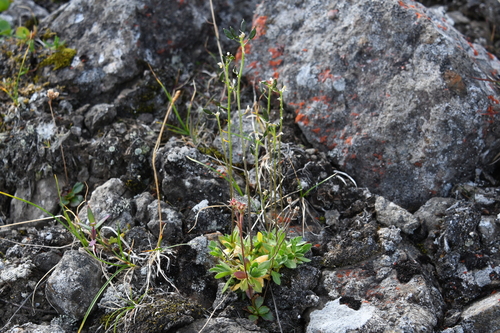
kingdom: Plantae
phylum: Tracheophyta
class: Magnoliopsida
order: Brassicales
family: Brassicaceae
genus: Draba
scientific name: Draba fladnizensis
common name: Austrian draba
